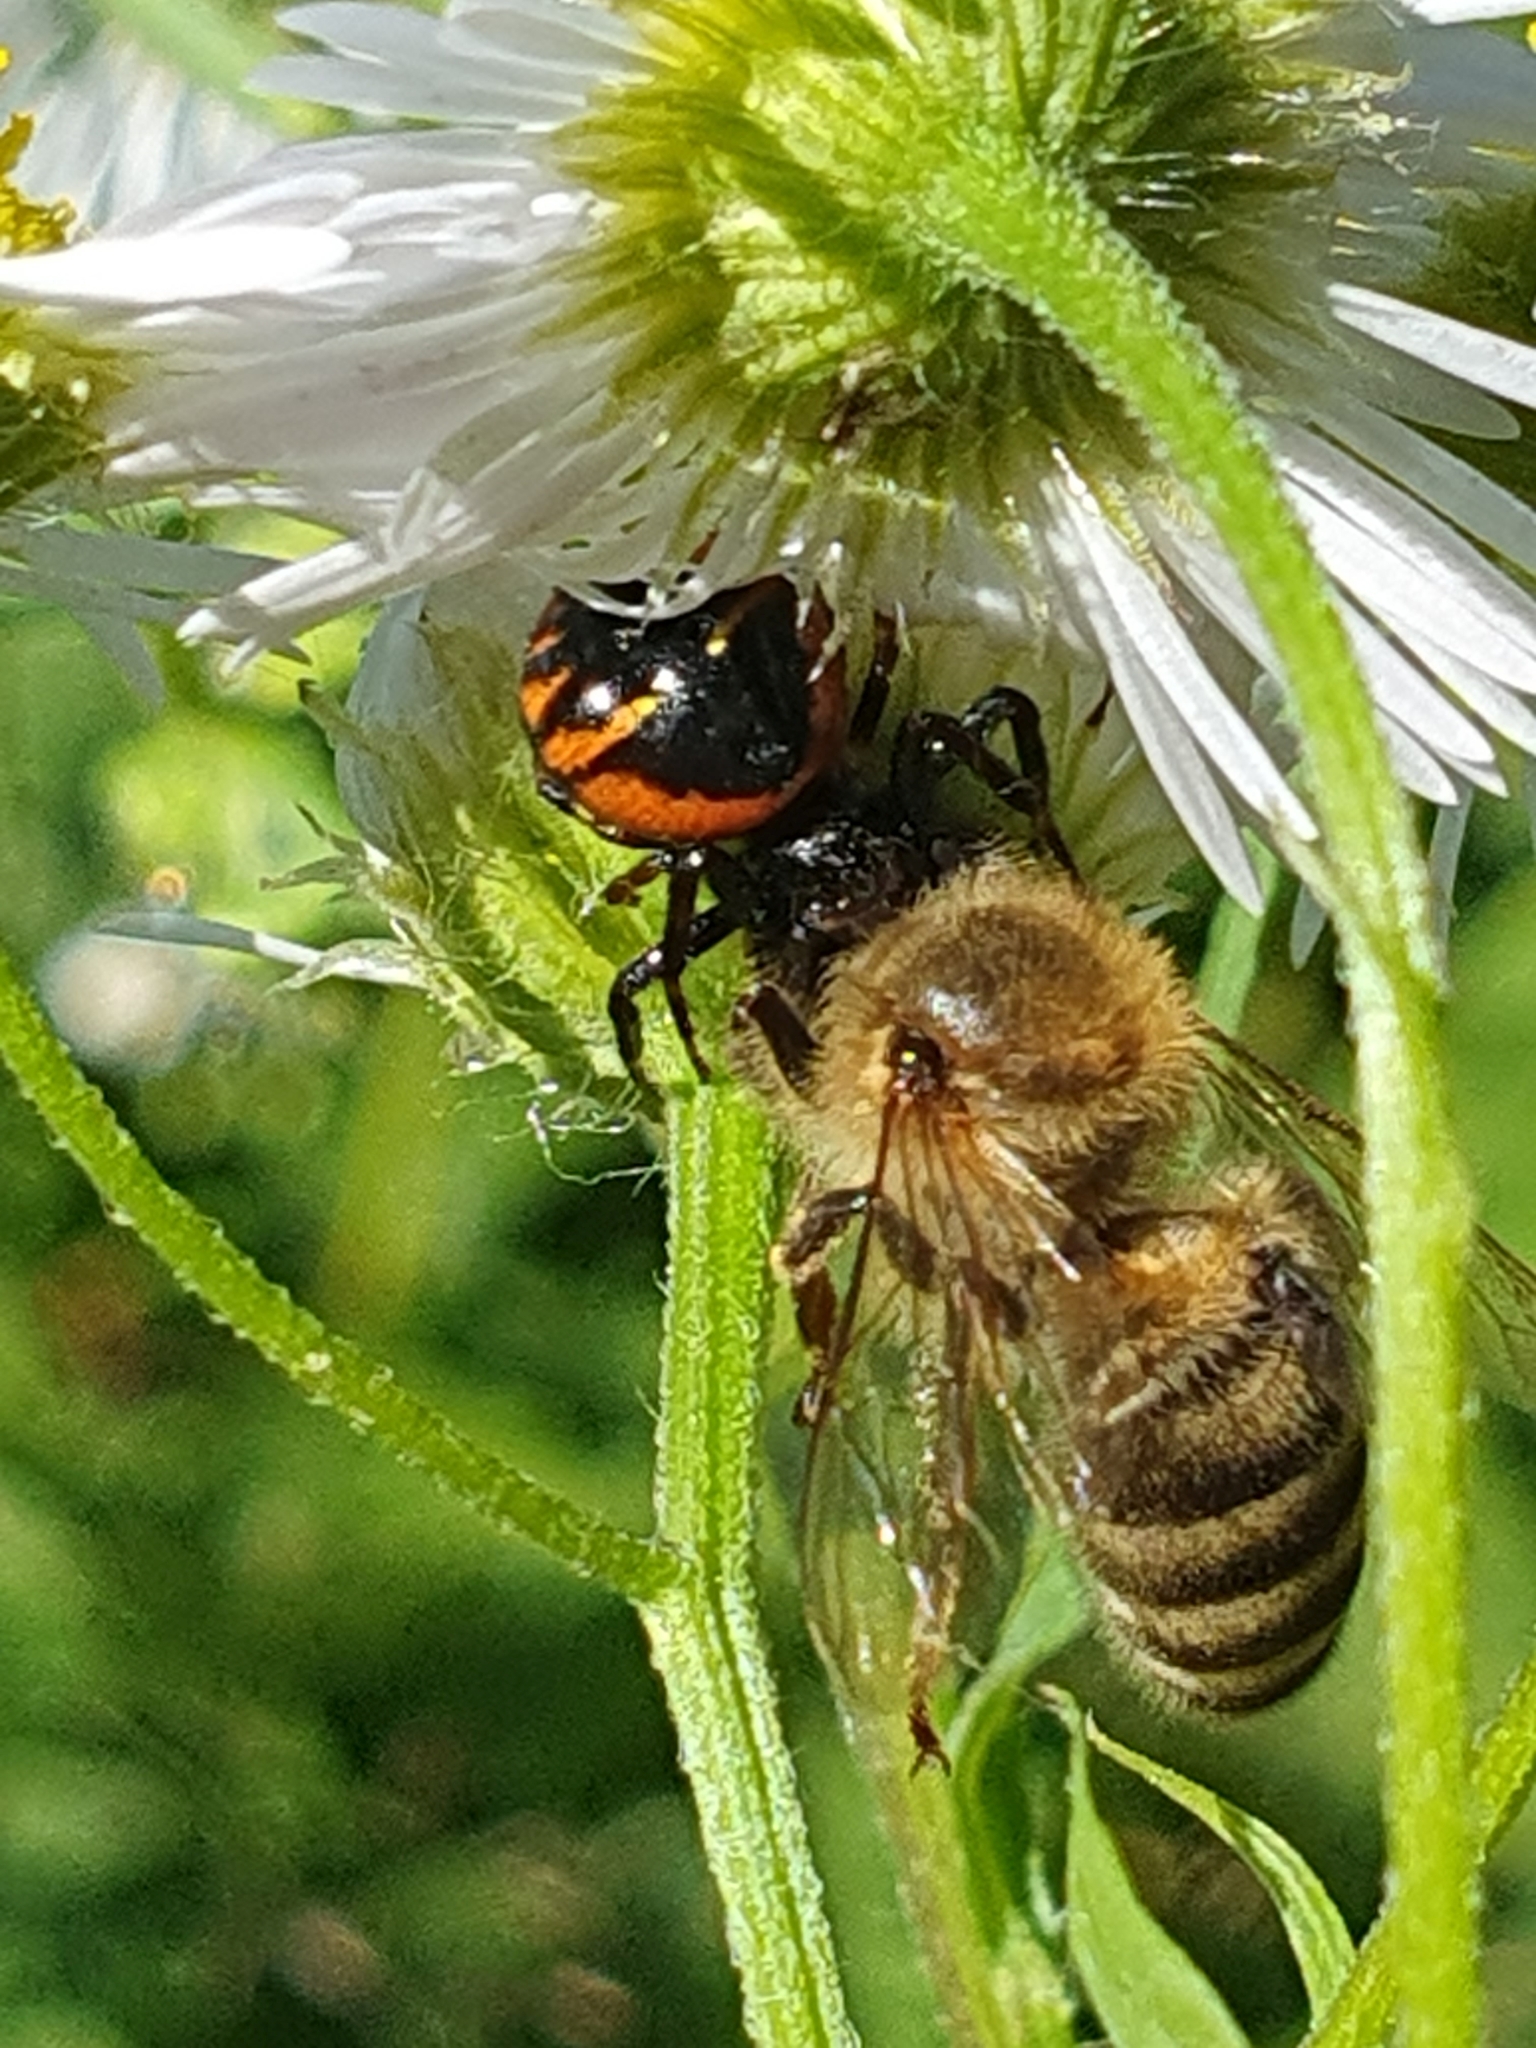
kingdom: Animalia
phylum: Arthropoda
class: Arachnida
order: Araneae
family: Thomisidae
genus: Synema
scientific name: Synema globosum
